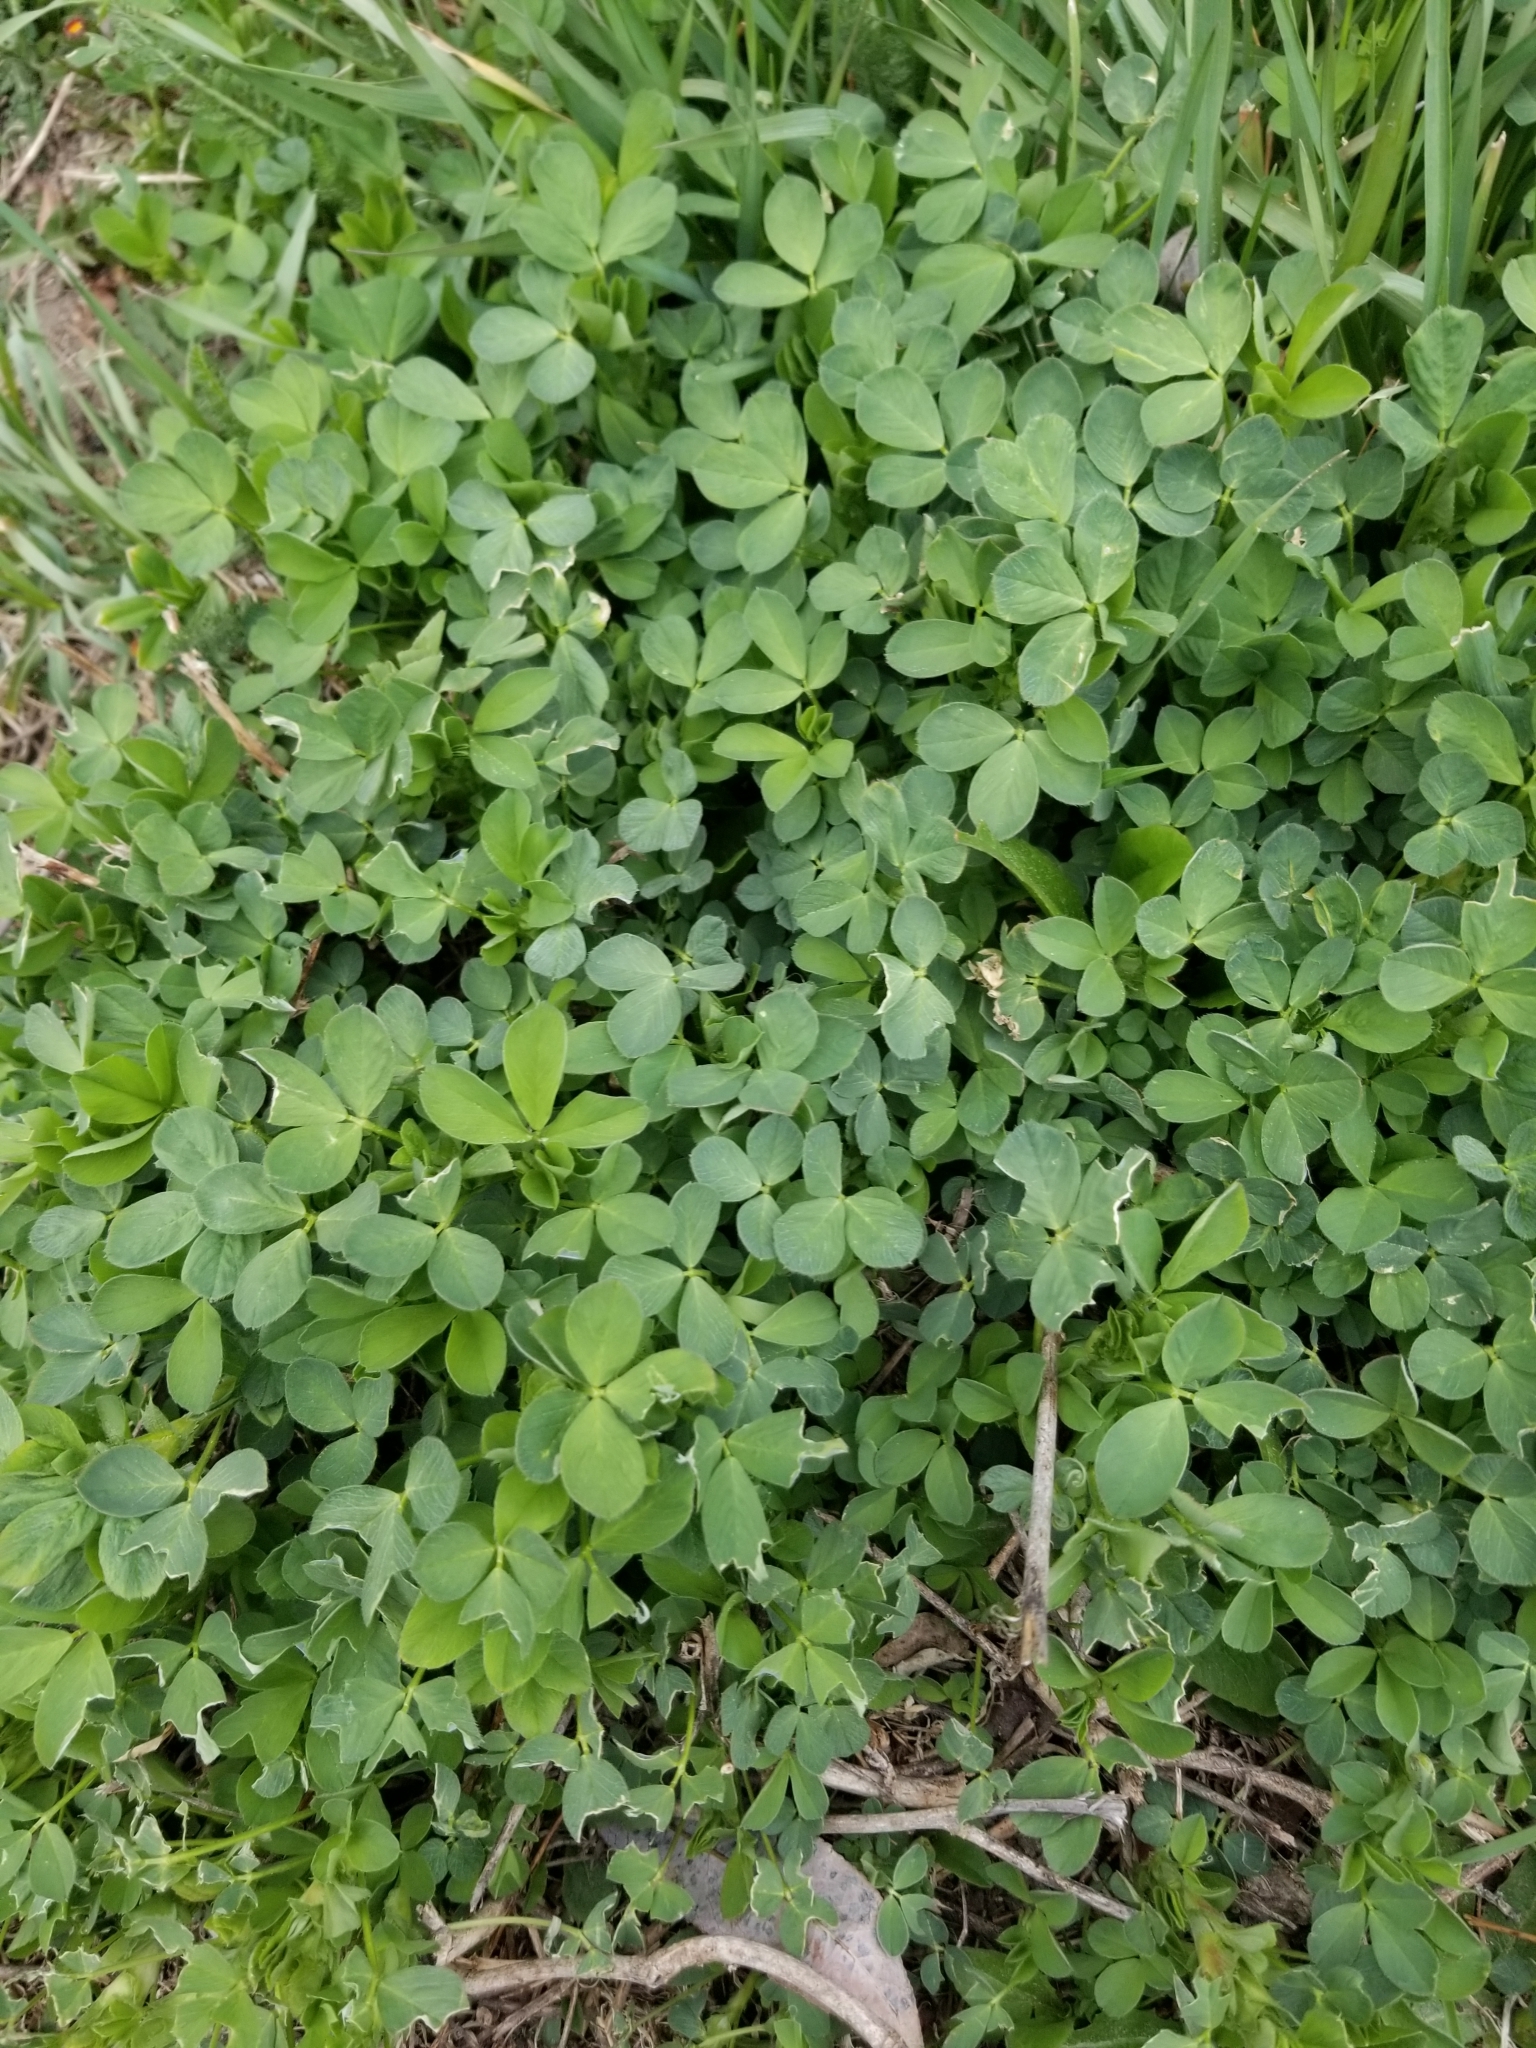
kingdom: Plantae
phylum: Tracheophyta
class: Magnoliopsida
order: Fabales
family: Fabaceae
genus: Medicago
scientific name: Medicago sativa
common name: Alfalfa
